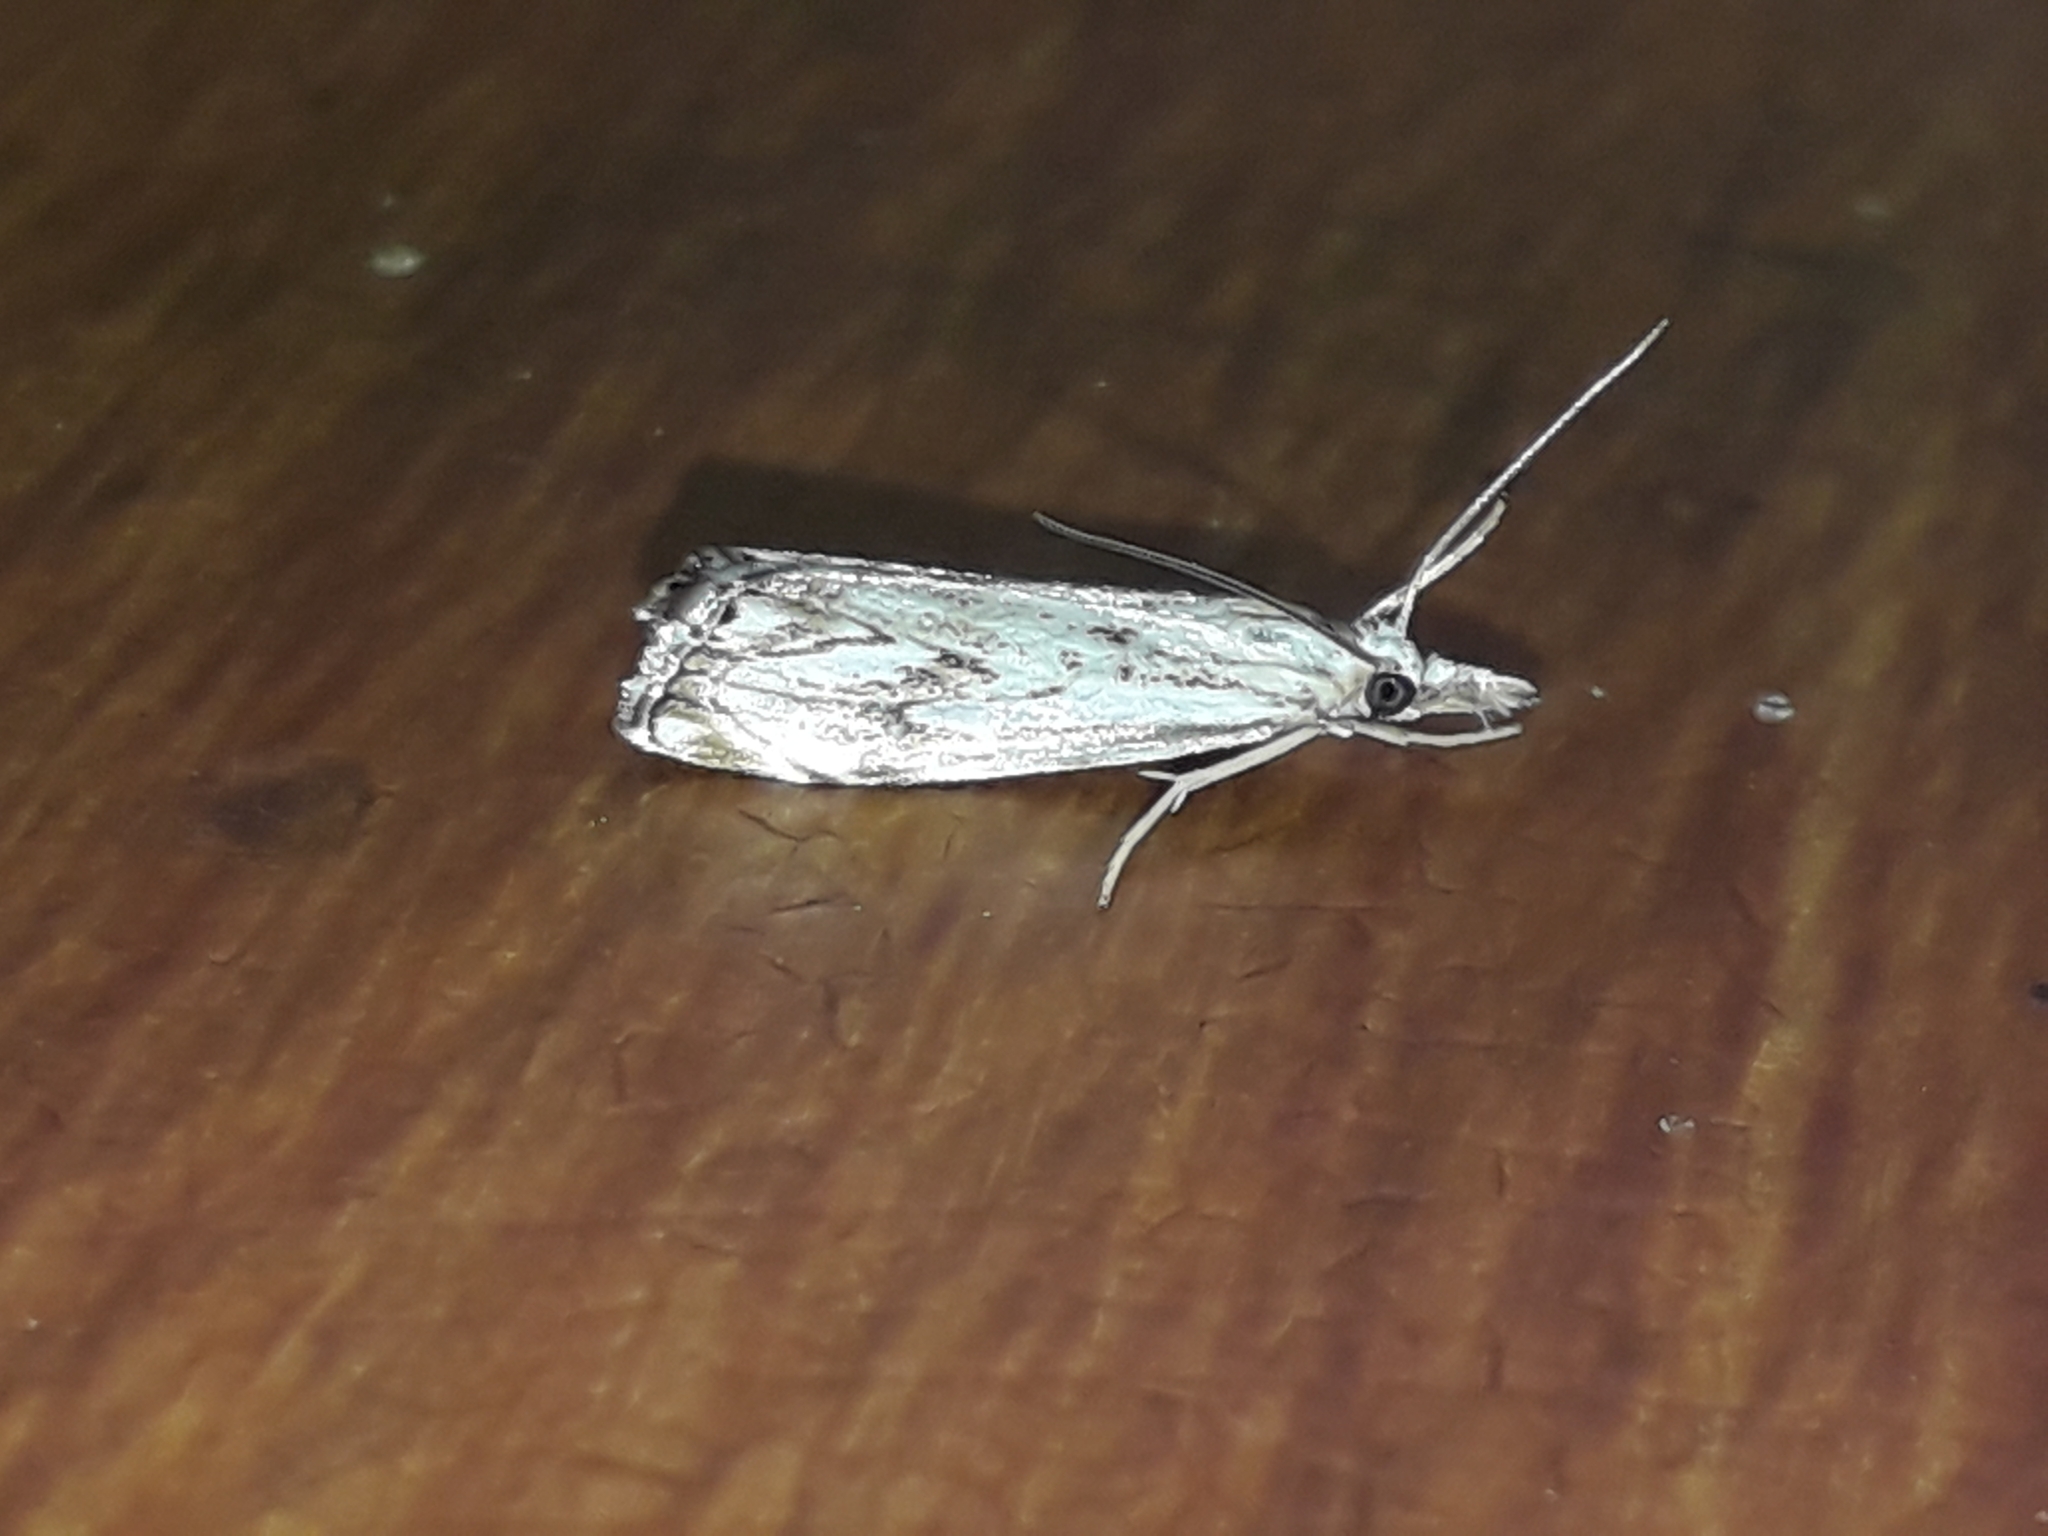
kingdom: Animalia
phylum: Arthropoda
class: Insecta
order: Lepidoptera
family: Crambidae
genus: Catoptria
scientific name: Catoptria falsella
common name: Chequered grass-veneer
